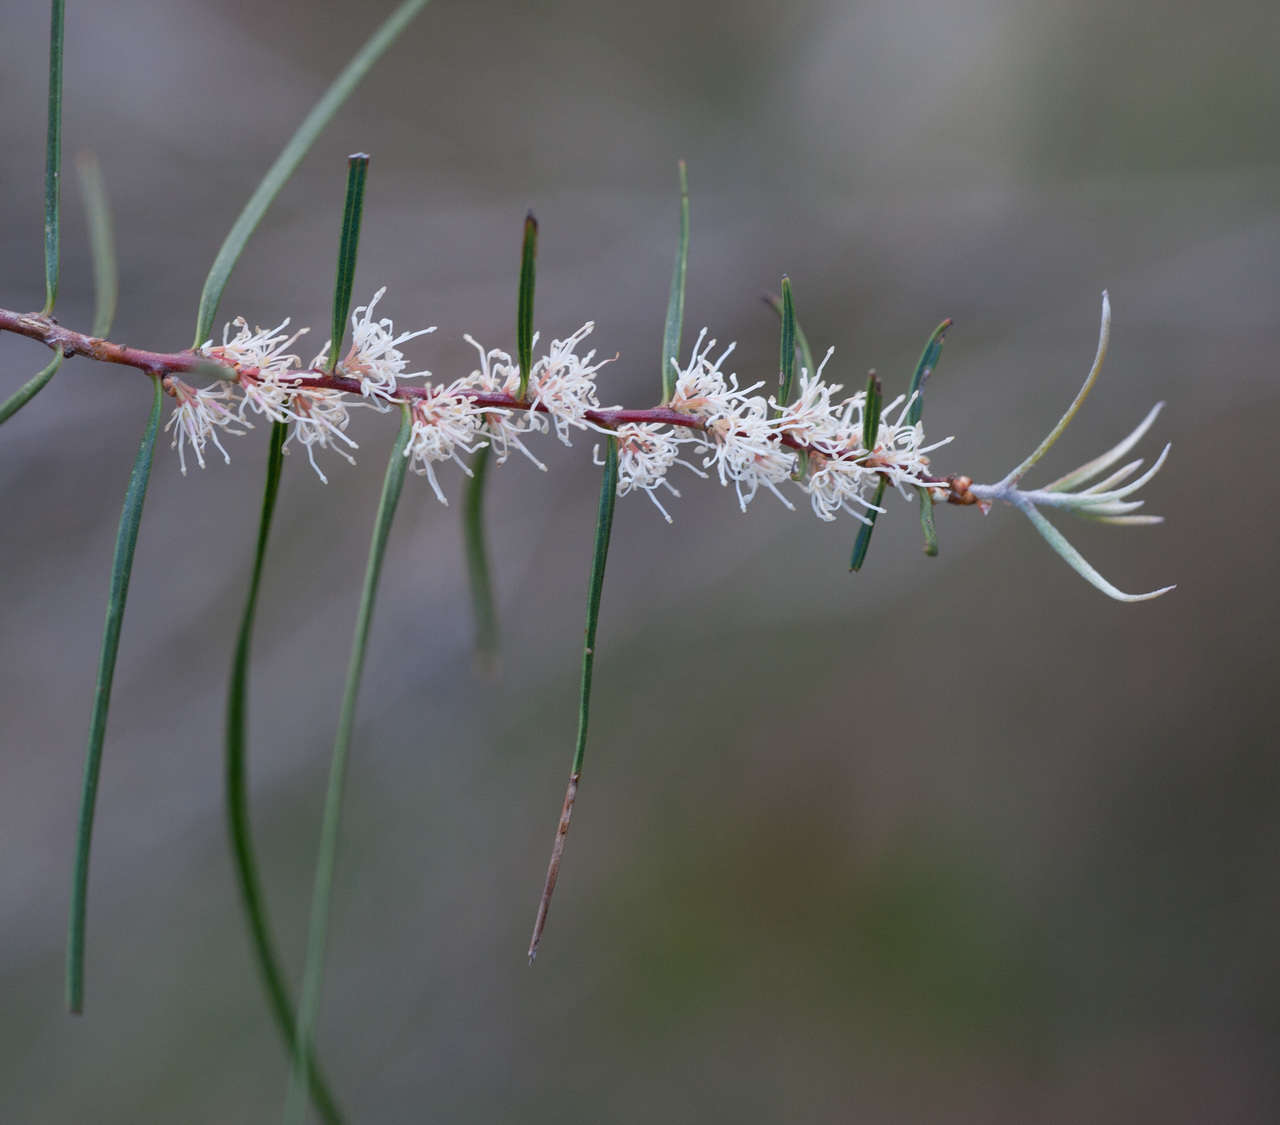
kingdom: Plantae
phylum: Tracheophyta
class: Magnoliopsida
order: Proteales
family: Proteaceae
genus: Hakea
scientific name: Hakea ulicina
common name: Furze hakea
